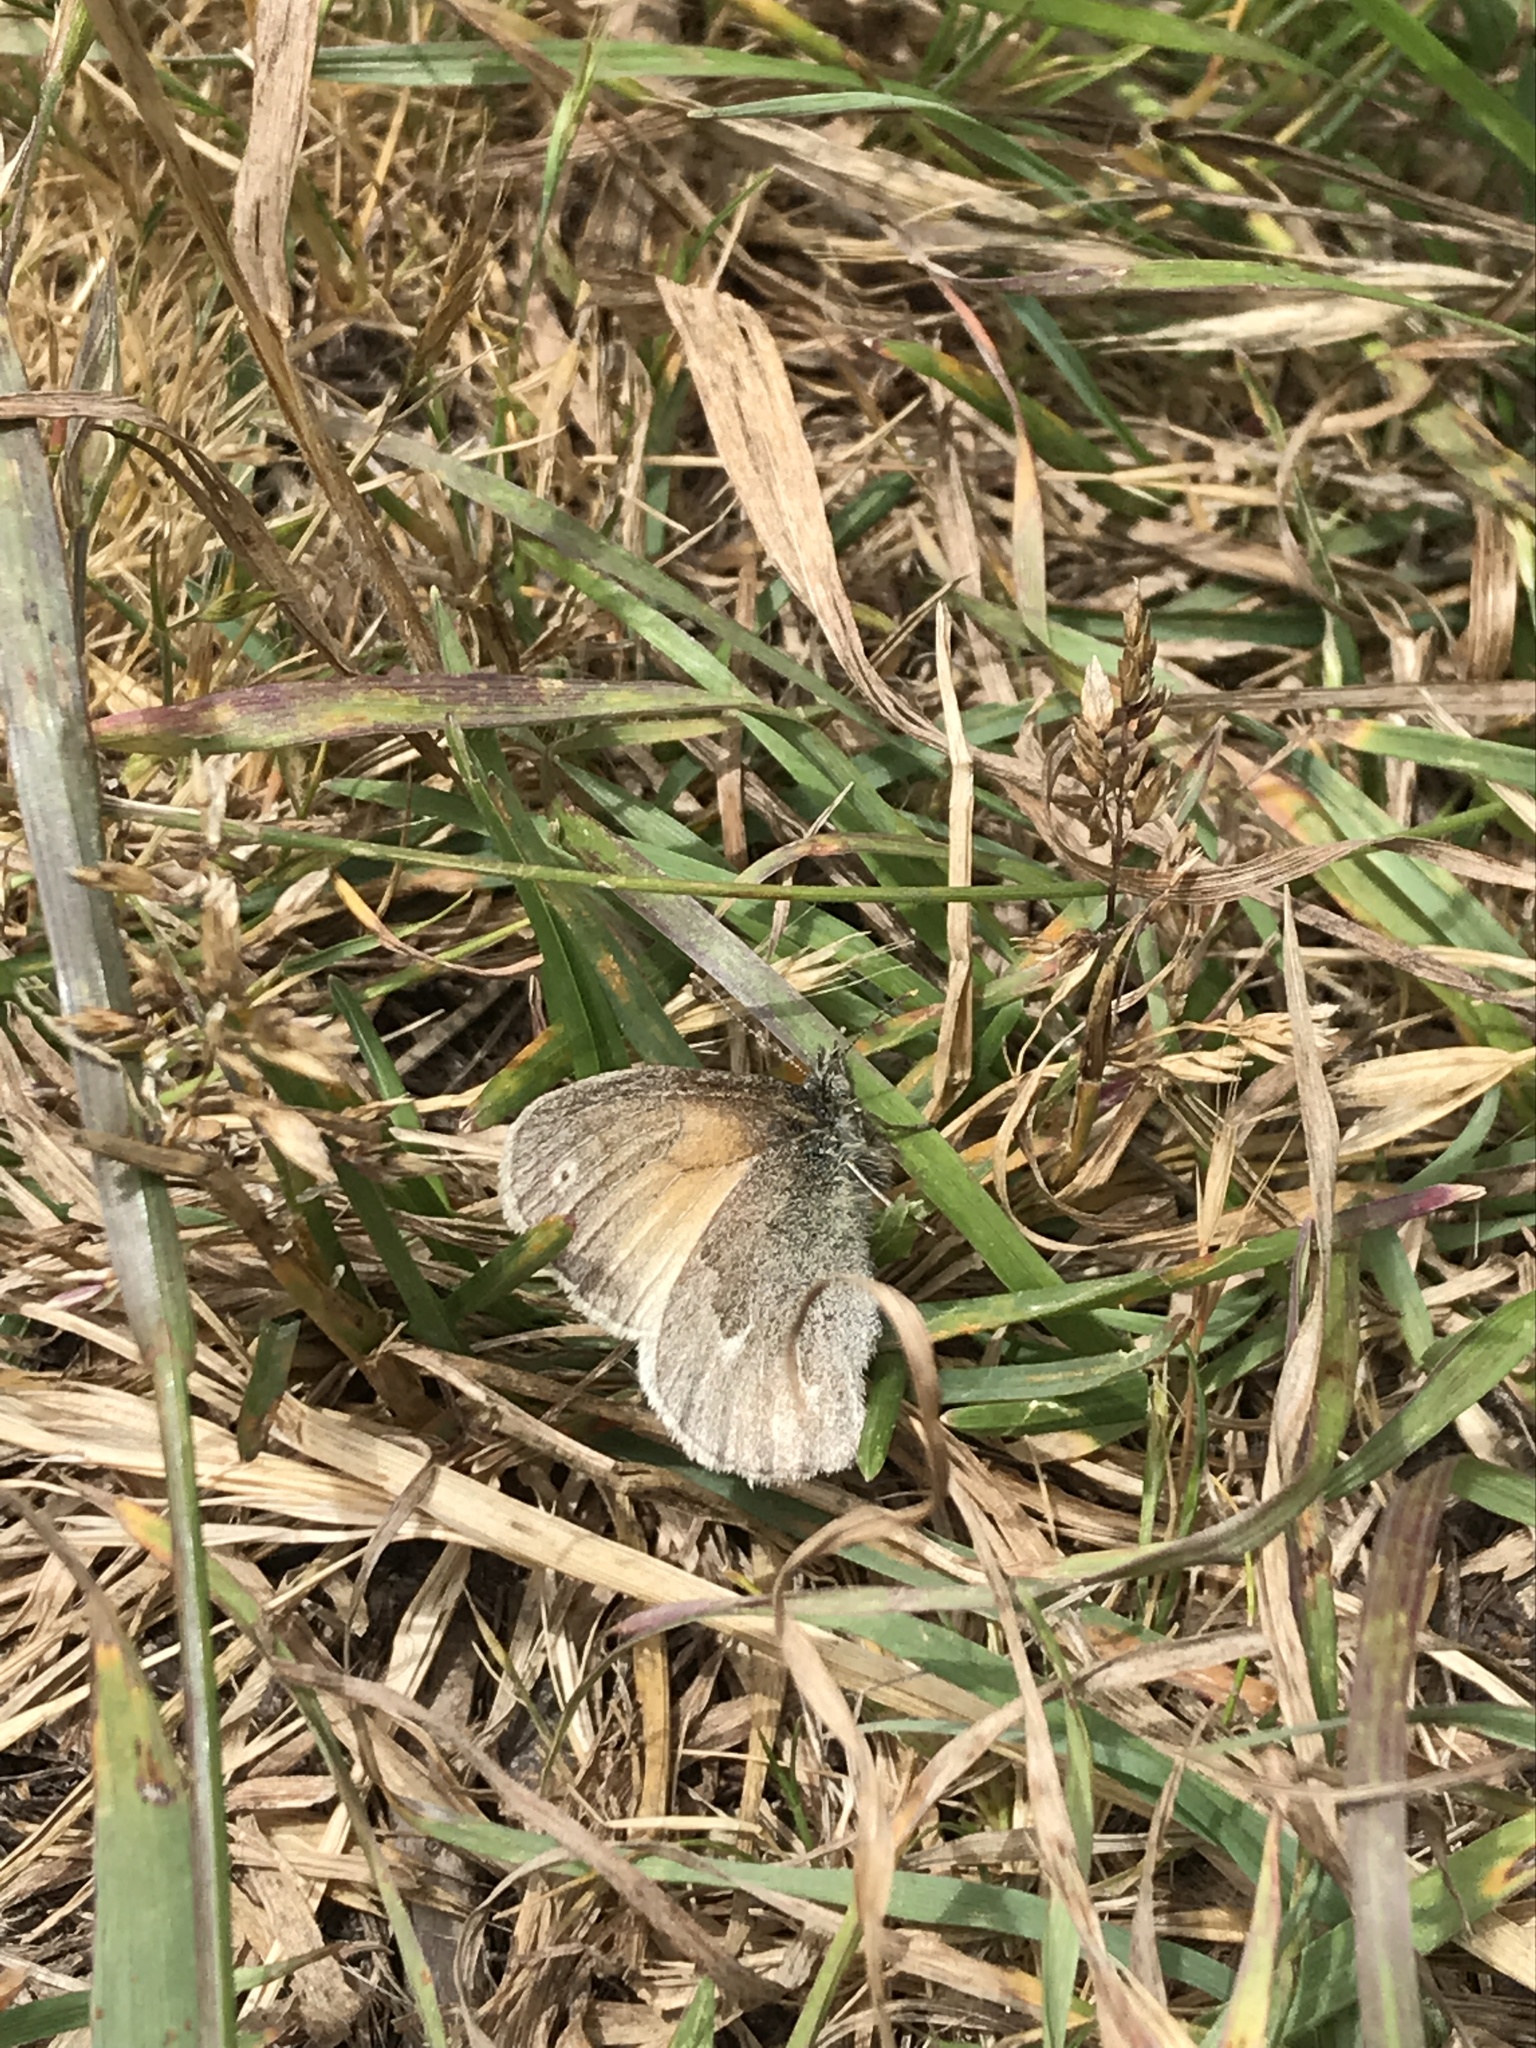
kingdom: Animalia
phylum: Arthropoda
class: Insecta
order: Lepidoptera
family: Nymphalidae
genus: Coenonympha
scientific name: Coenonympha california
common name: Common ringlet
